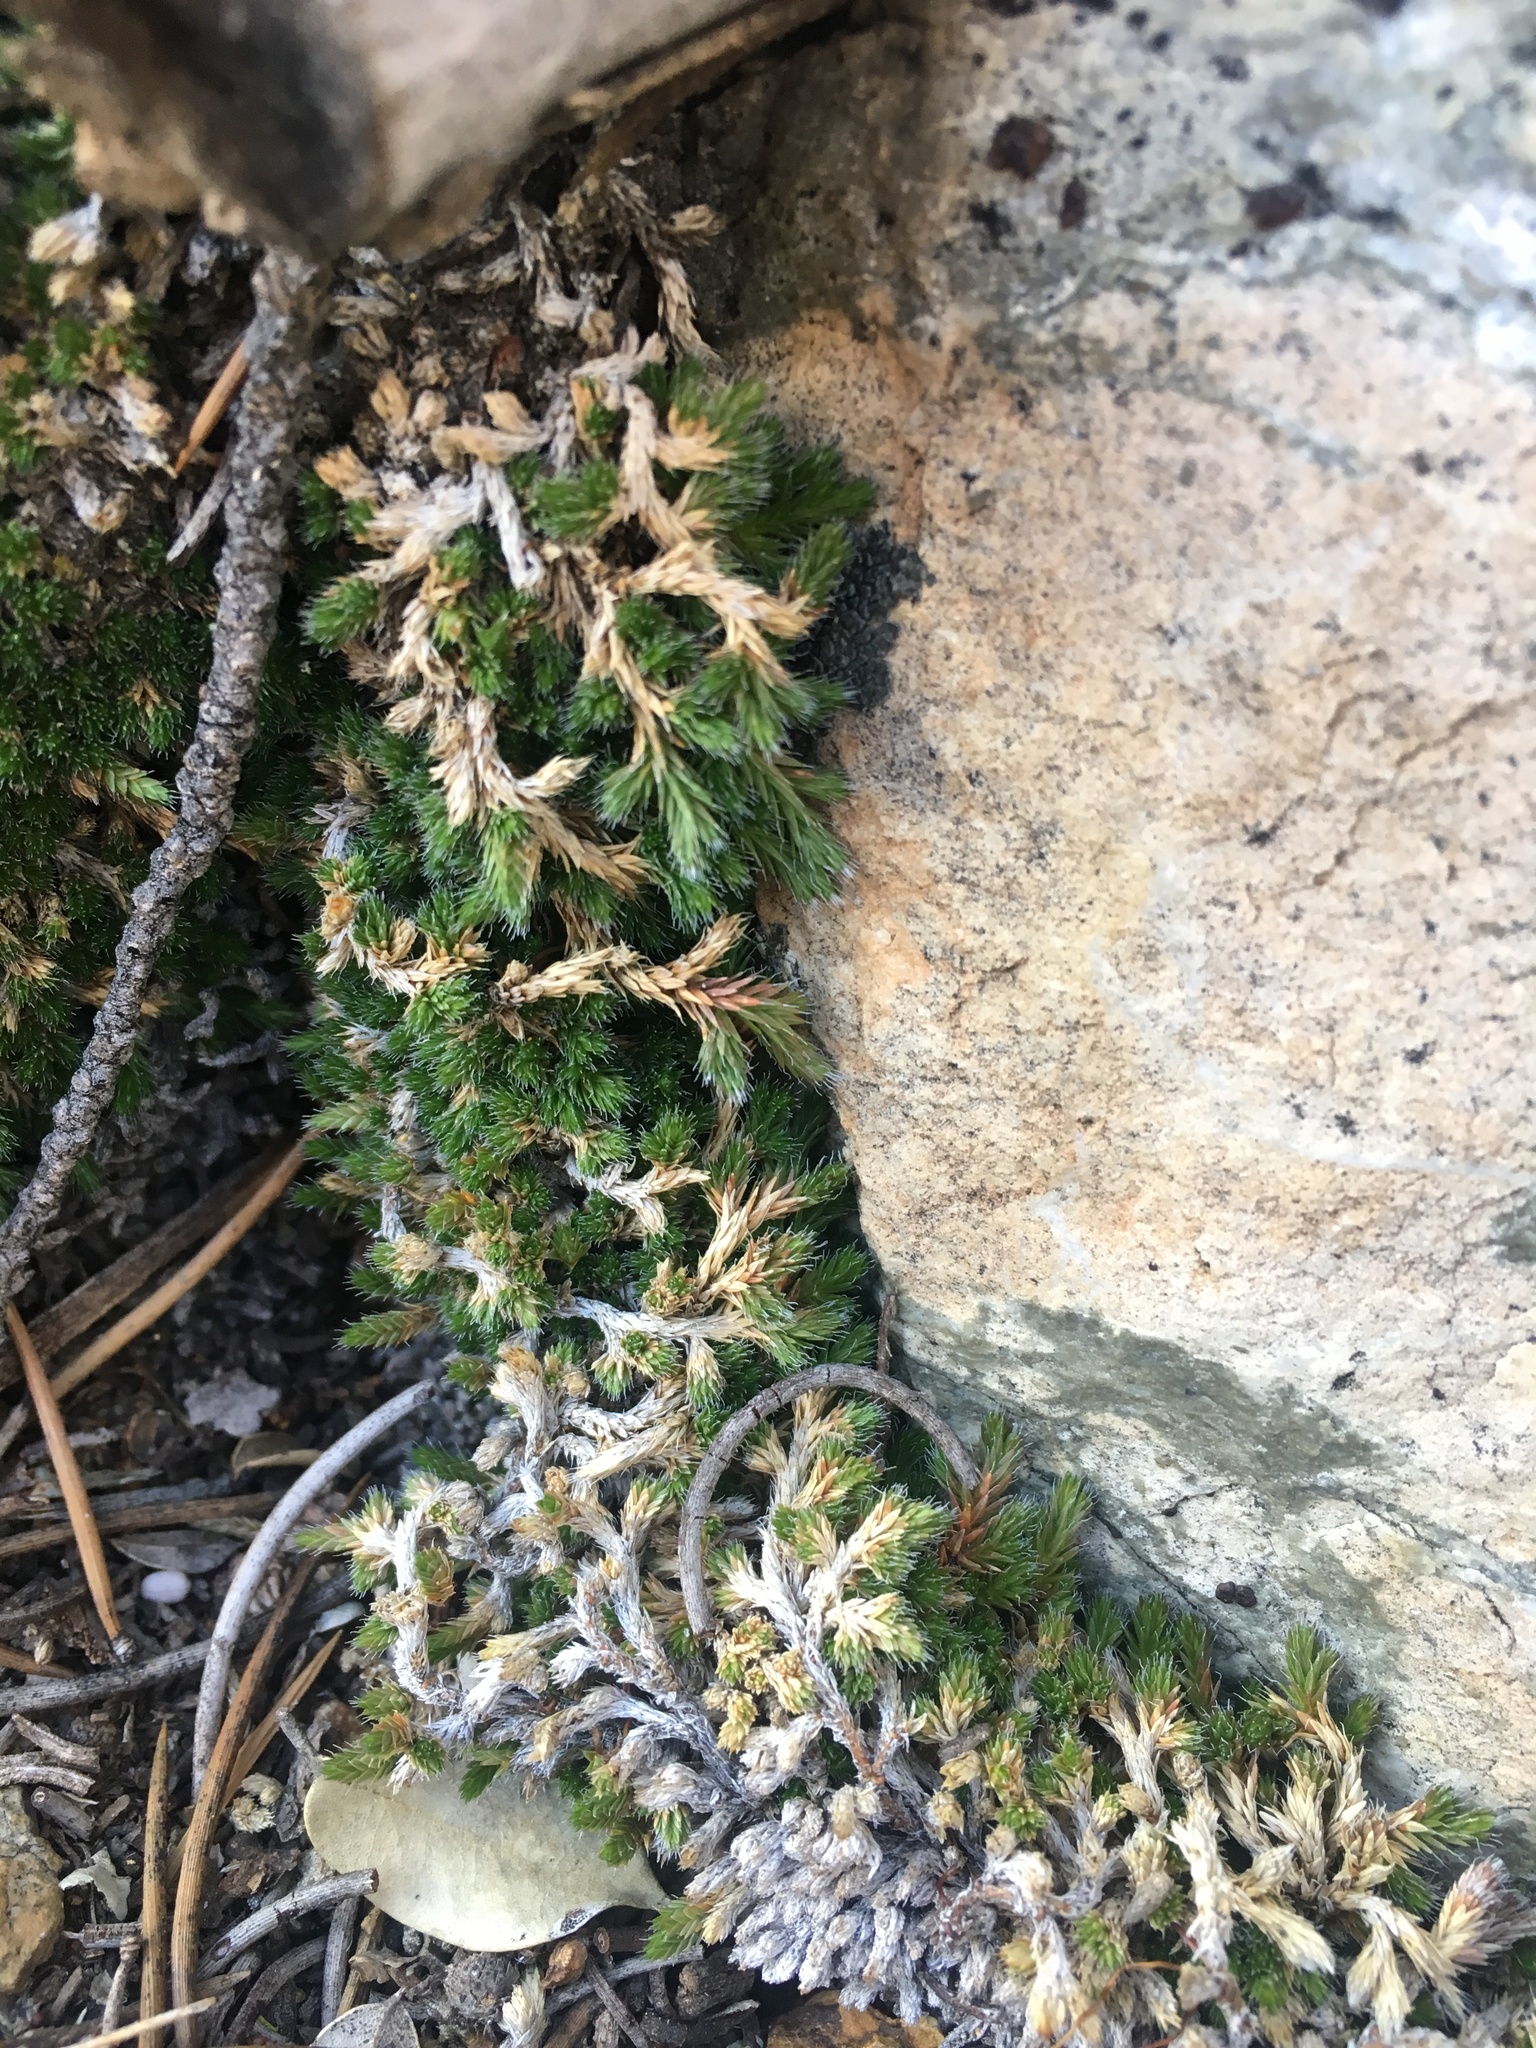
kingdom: Plantae
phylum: Tracheophyta
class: Lycopodiopsida
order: Selaginellales
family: Selaginellaceae
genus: Selaginella
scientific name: Selaginella asprella
